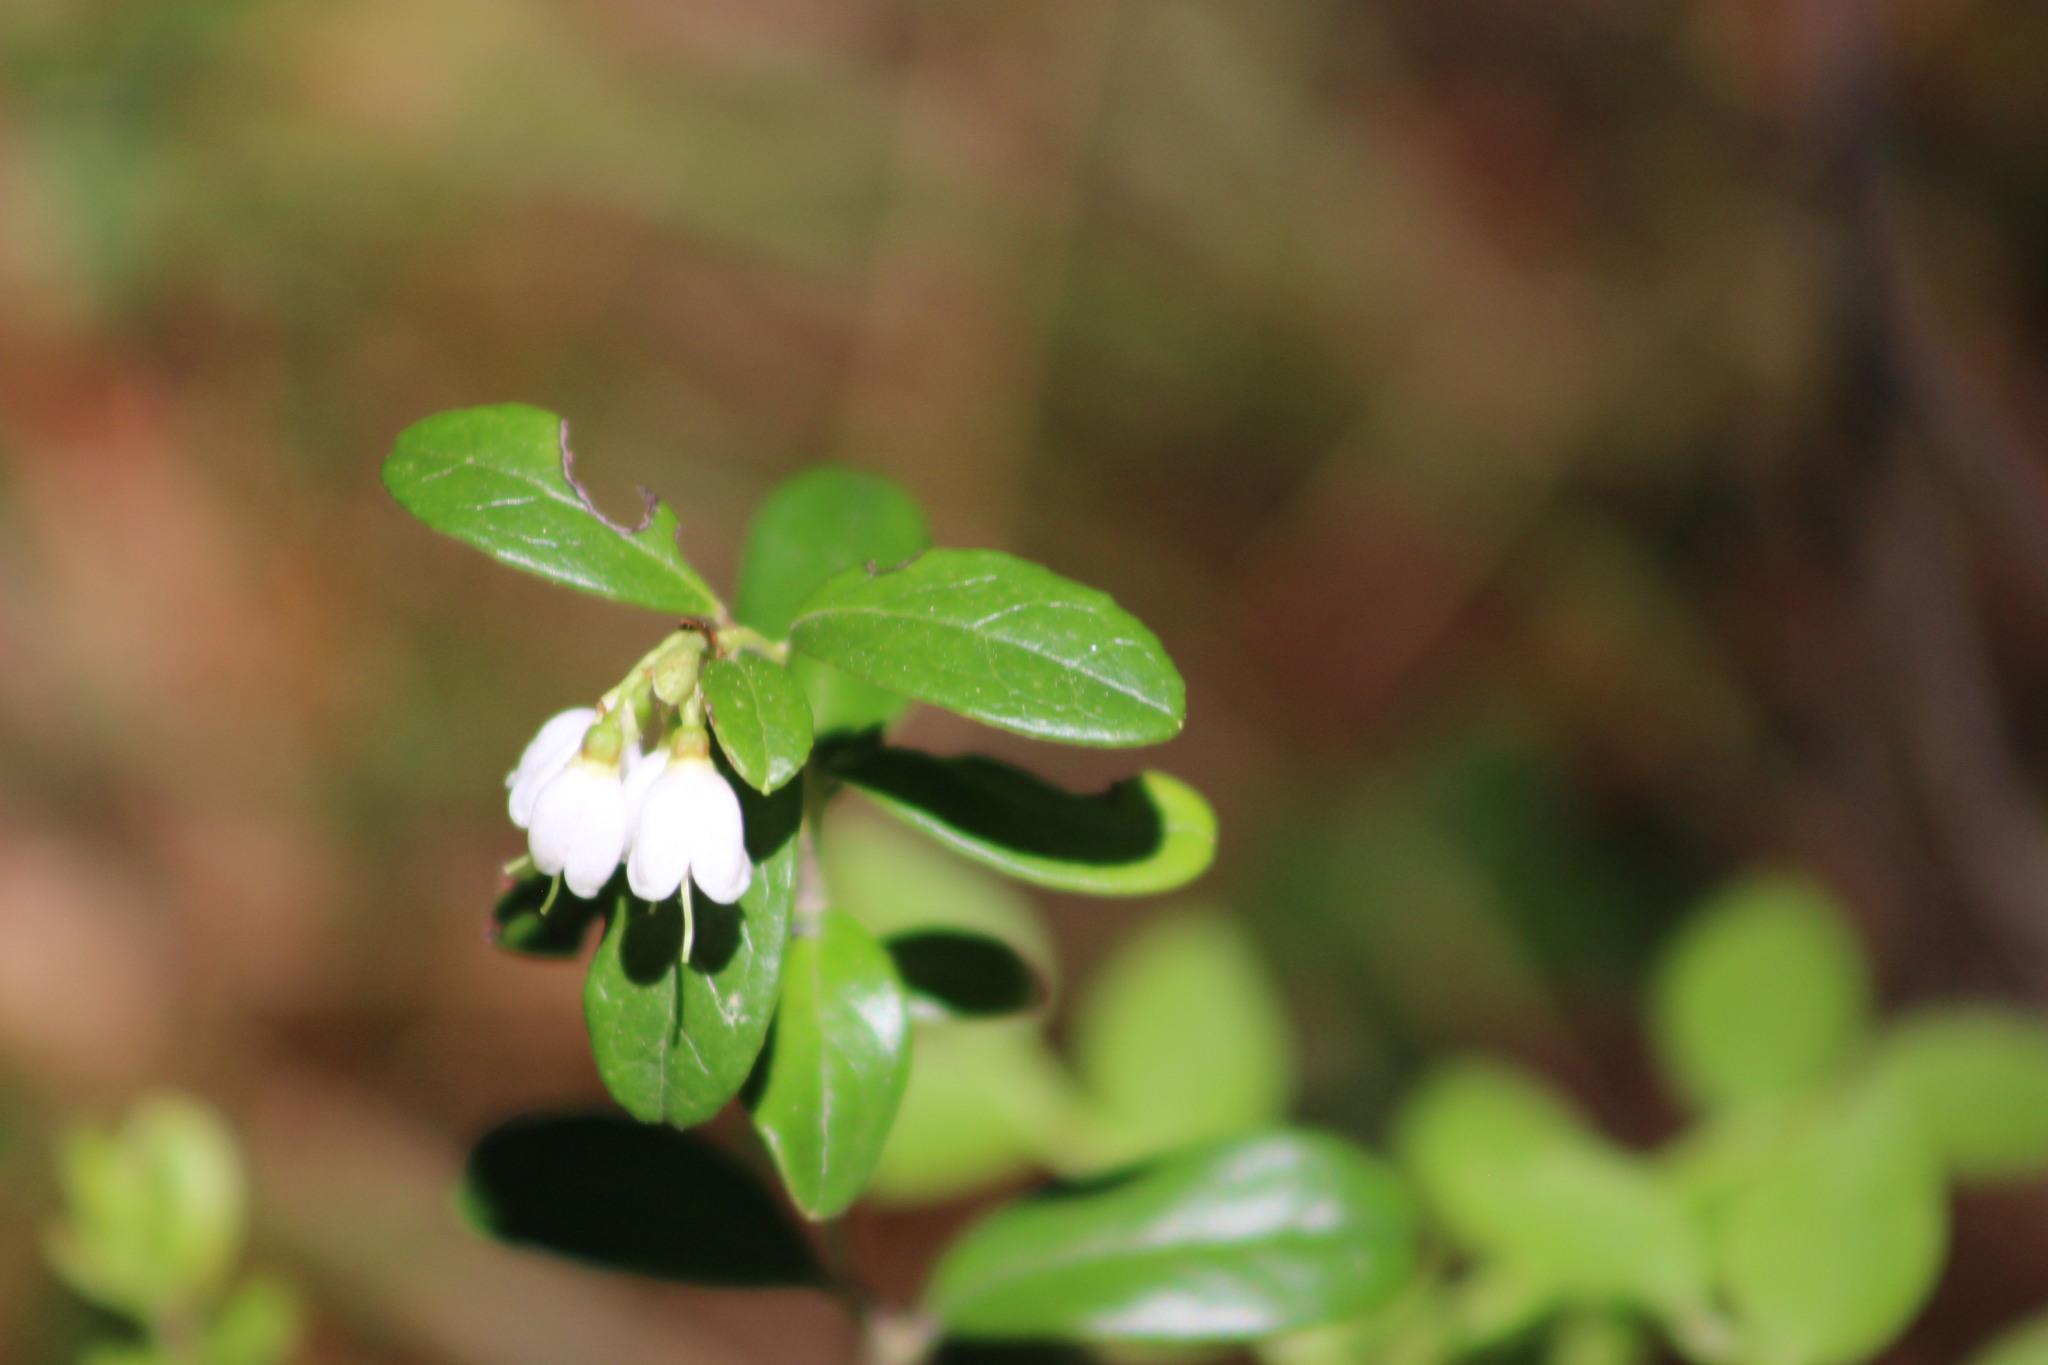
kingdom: Plantae
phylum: Tracheophyta
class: Magnoliopsida
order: Ericales
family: Ericaceae
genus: Vaccinium
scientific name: Vaccinium vitis-idaea
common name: Cowberry
